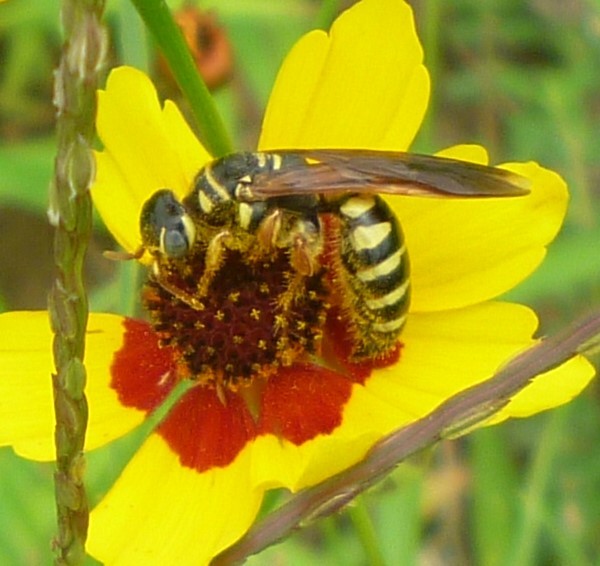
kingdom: Animalia
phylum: Arthropoda
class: Insecta
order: Hymenoptera
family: Tiphiidae
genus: Myzinum
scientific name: Myzinum quinquecinctum
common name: Five-banded thynnid wasp
